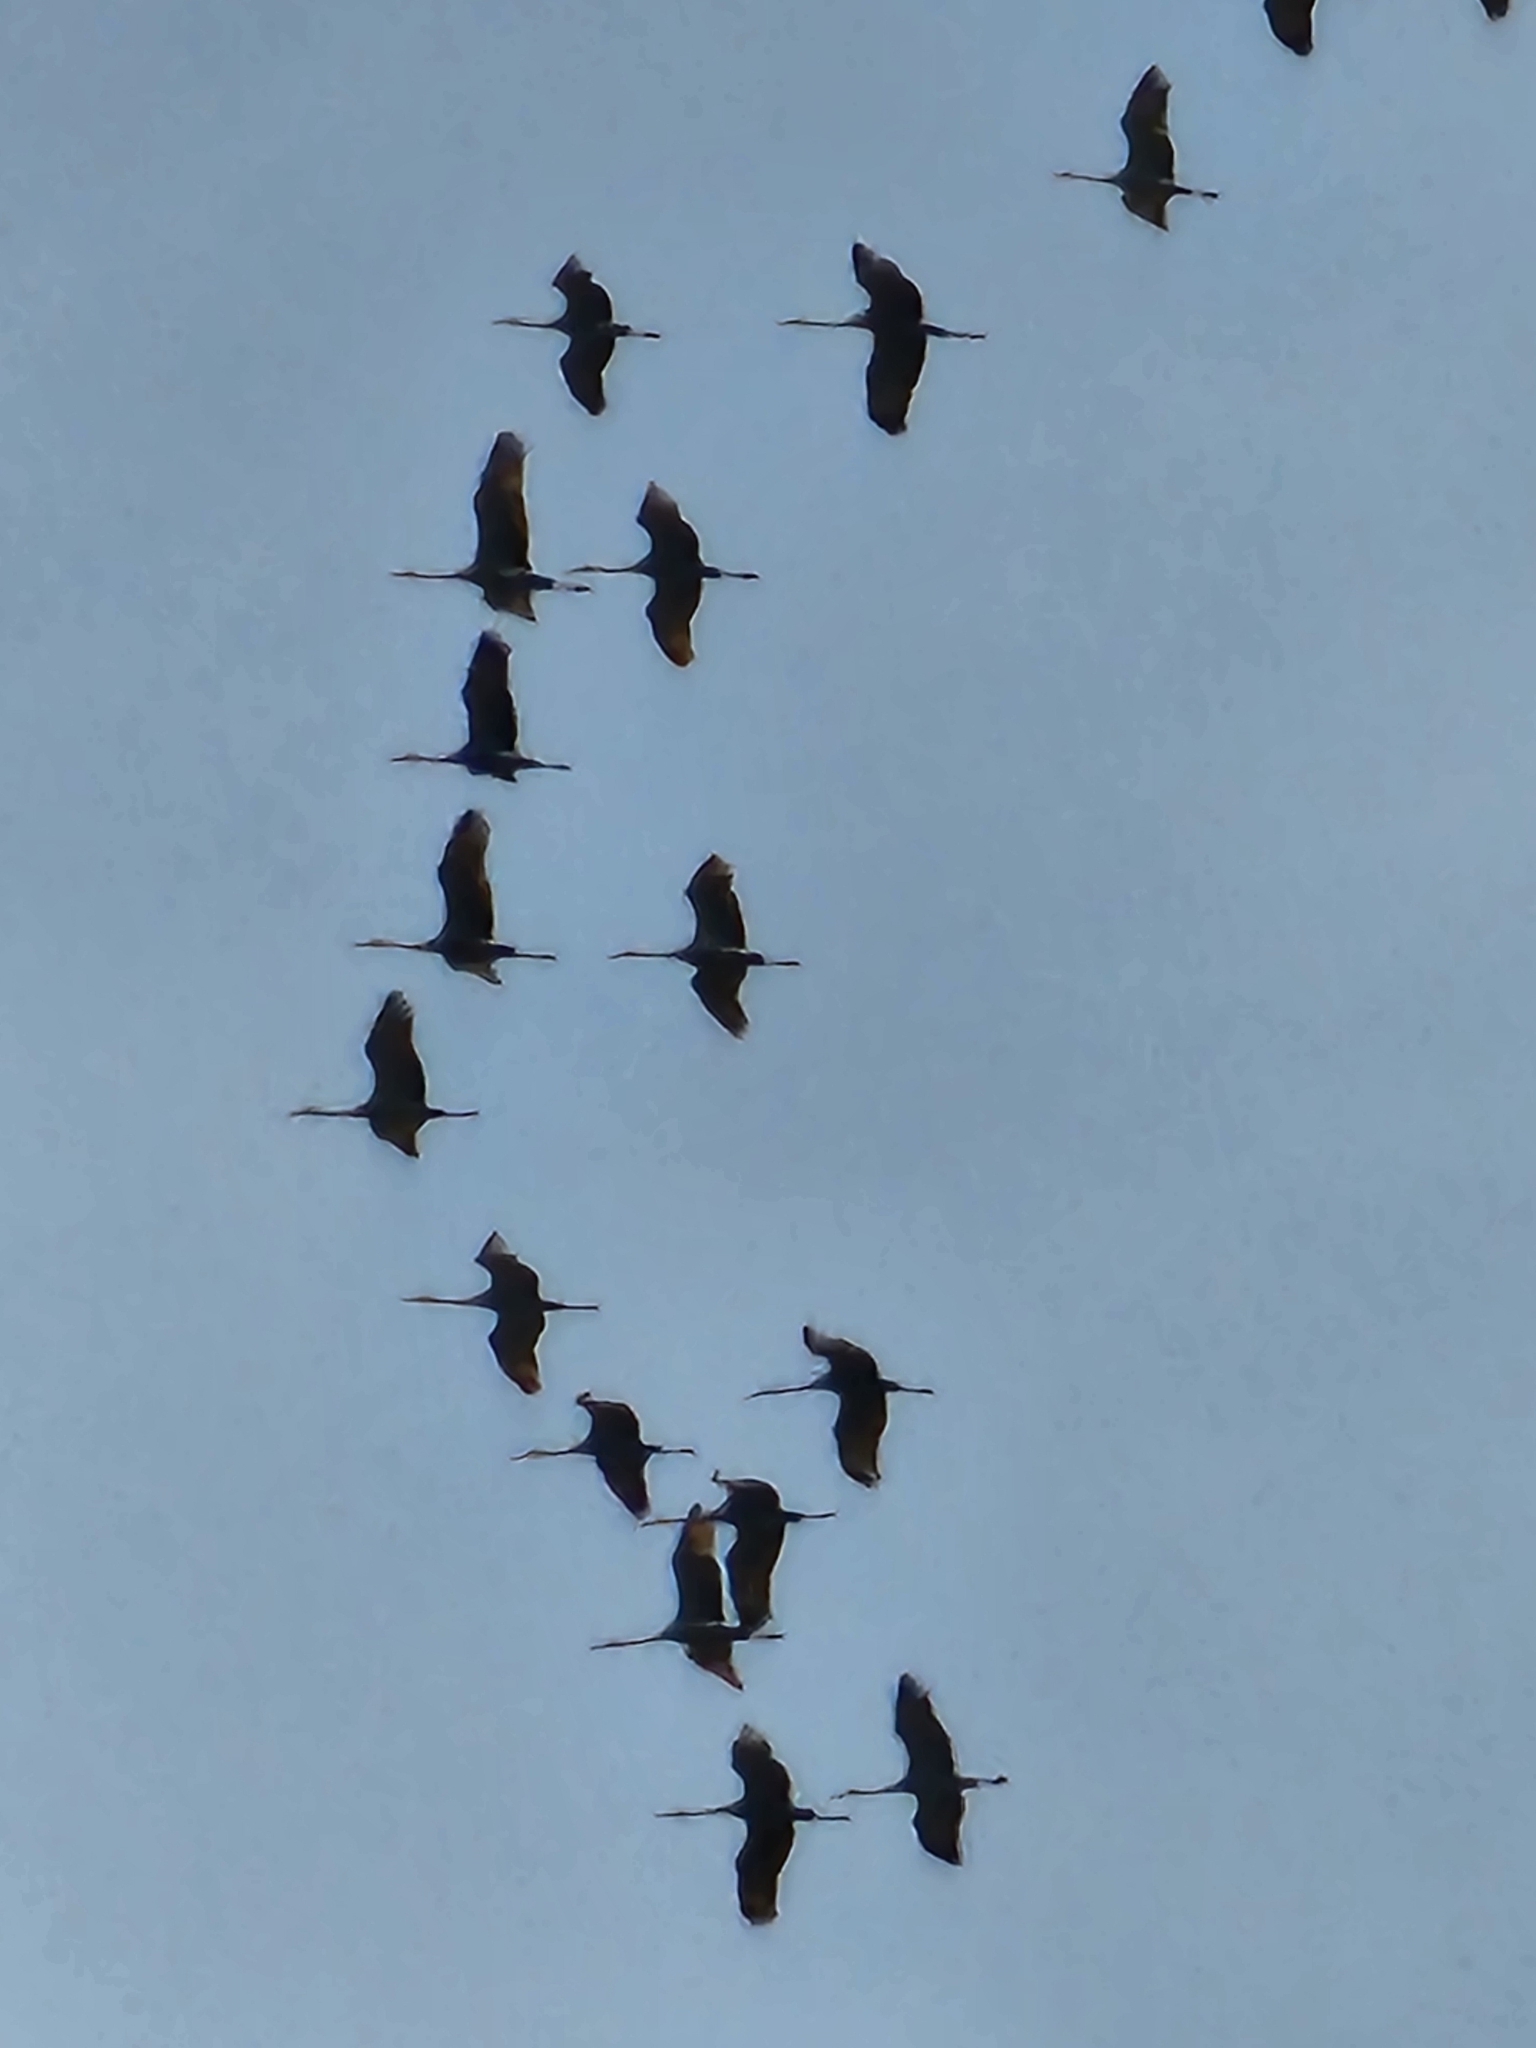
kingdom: Animalia
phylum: Chordata
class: Aves
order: Gruiformes
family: Gruidae
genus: Grus
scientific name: Grus canadensis
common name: Sandhill crane
